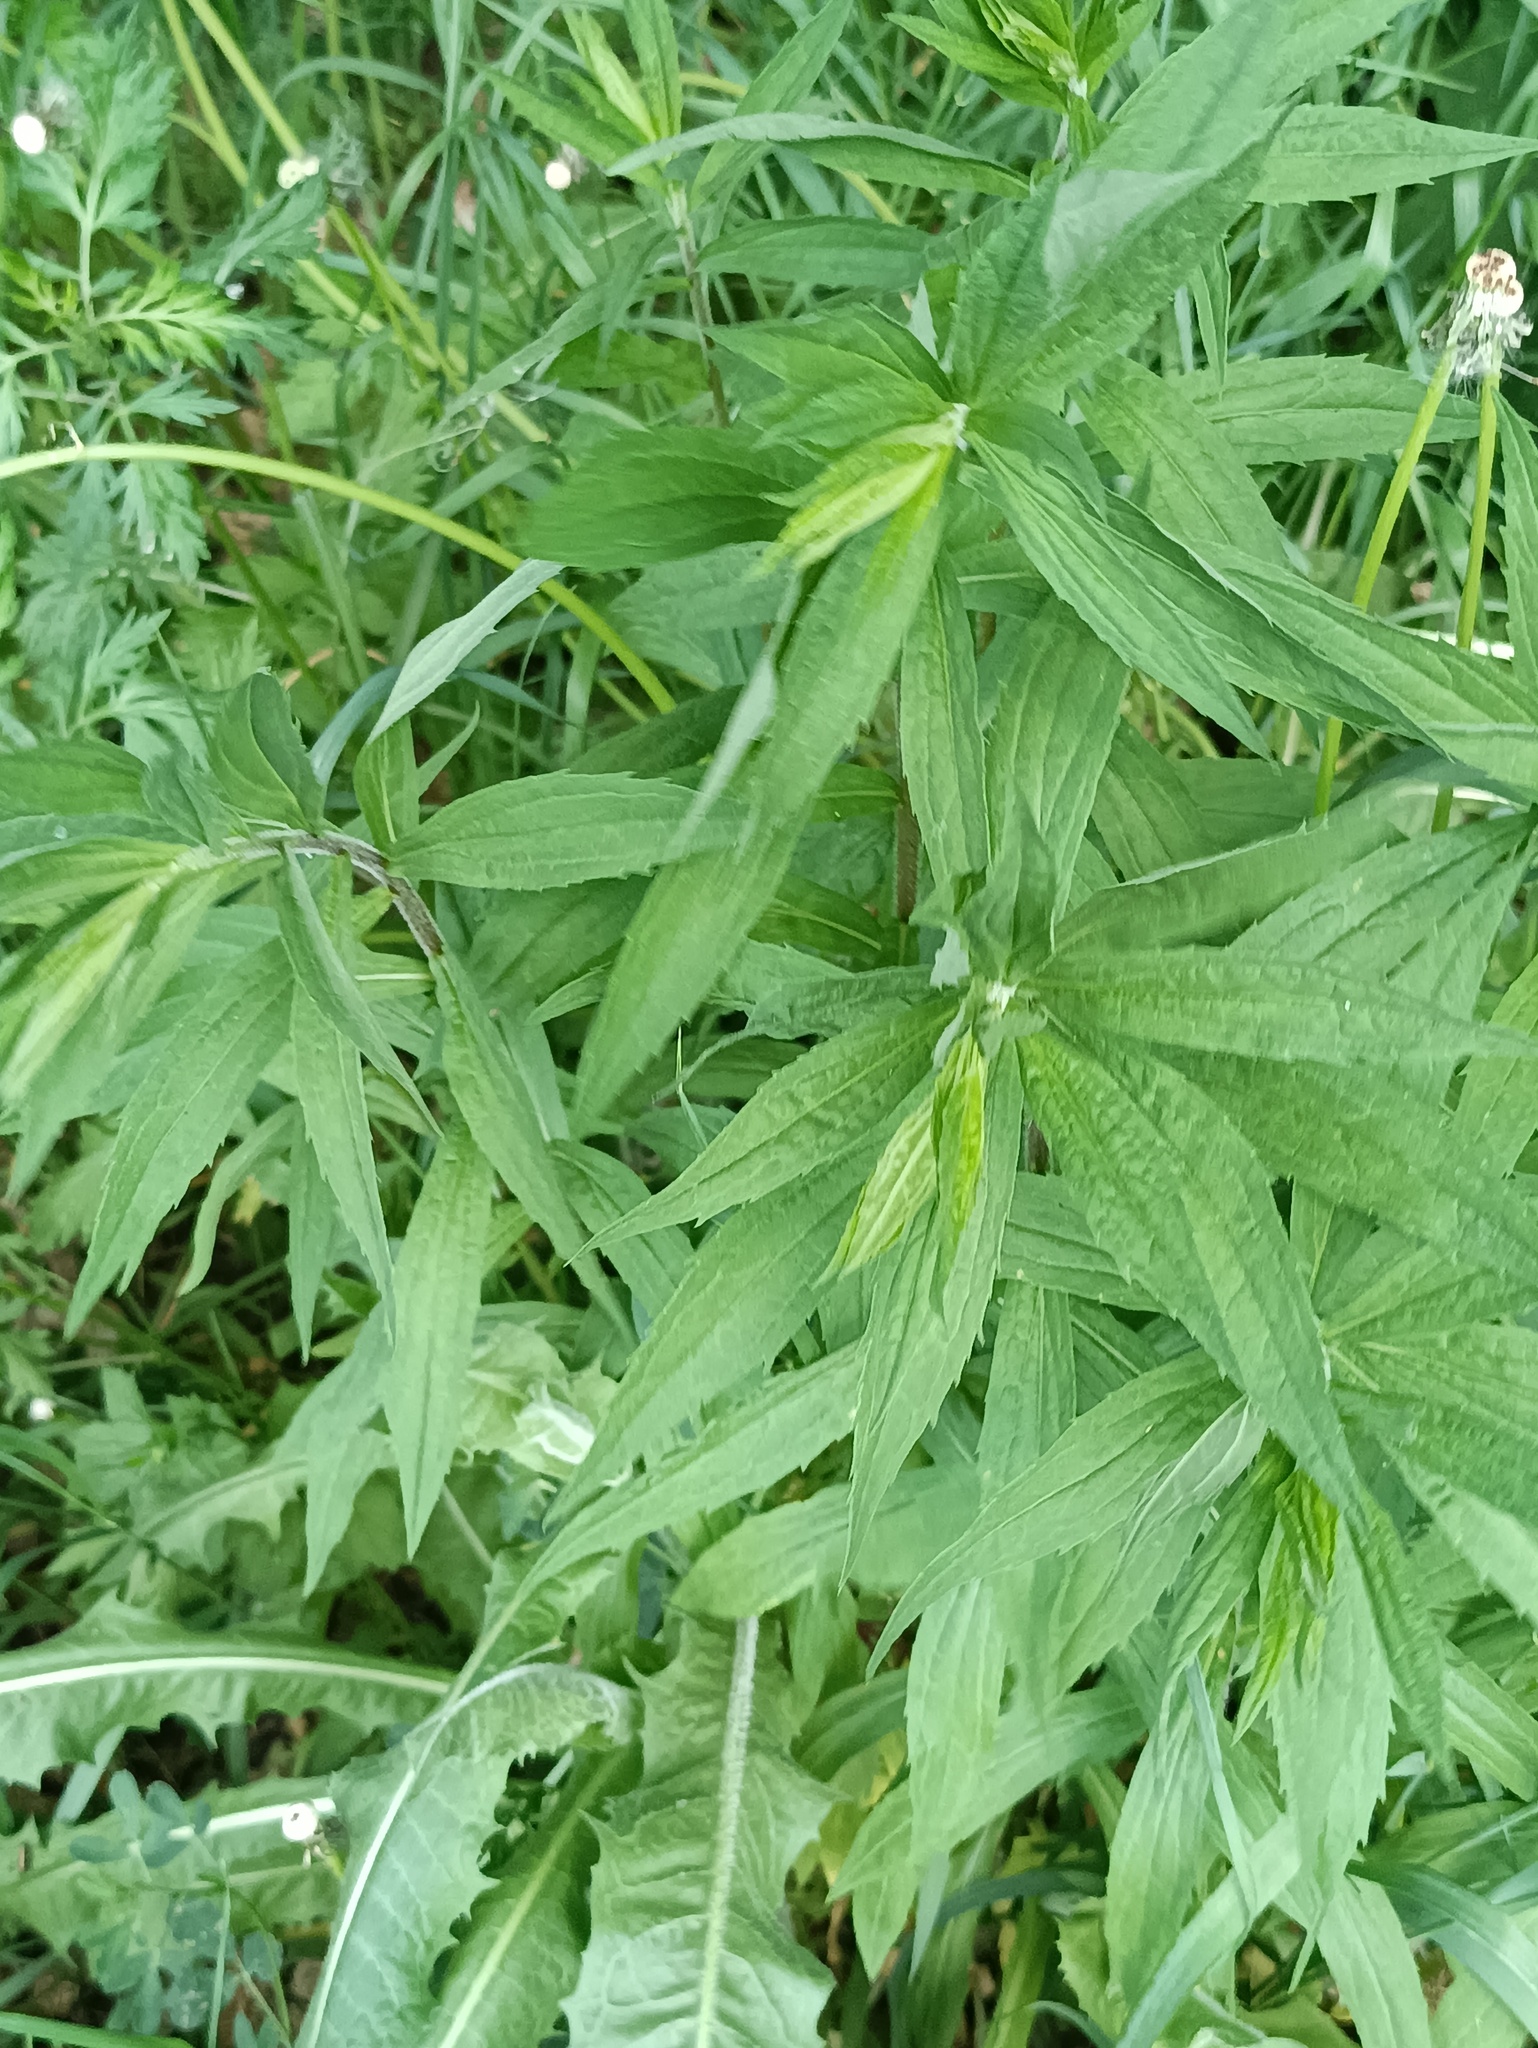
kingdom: Plantae
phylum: Tracheophyta
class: Magnoliopsida
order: Asterales
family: Asteraceae
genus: Solidago
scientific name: Solidago canadensis
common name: Canada goldenrod
